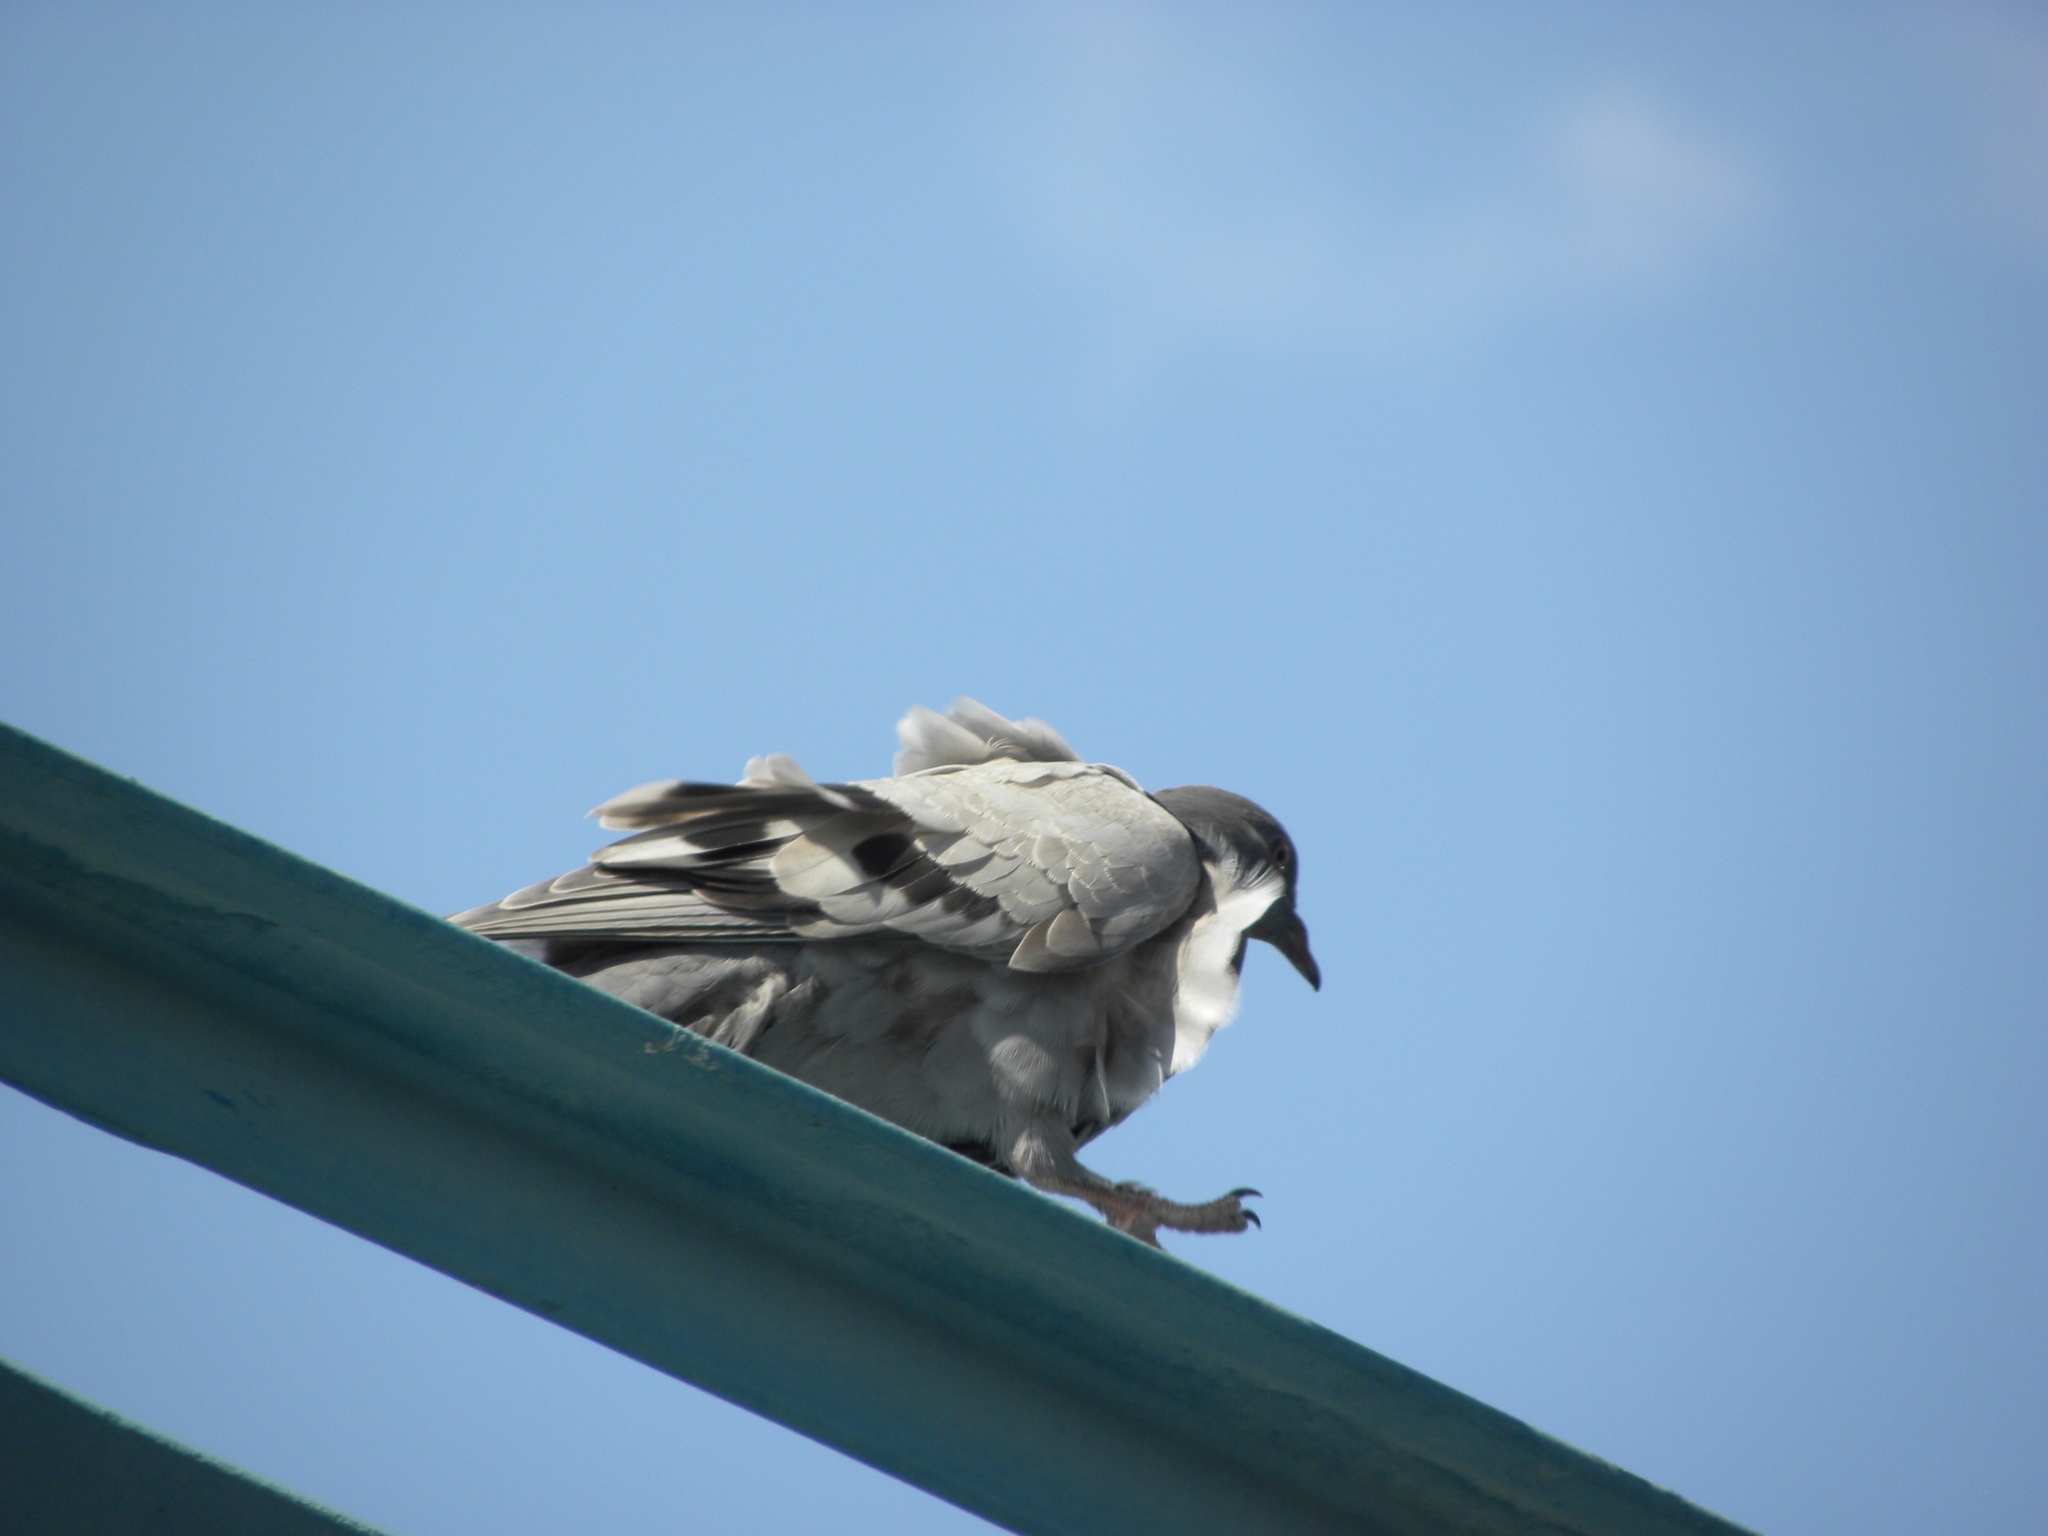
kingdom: Animalia
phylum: Chordata
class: Aves
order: Columbiformes
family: Columbidae
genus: Columba
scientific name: Columba livia
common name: Rock pigeon
